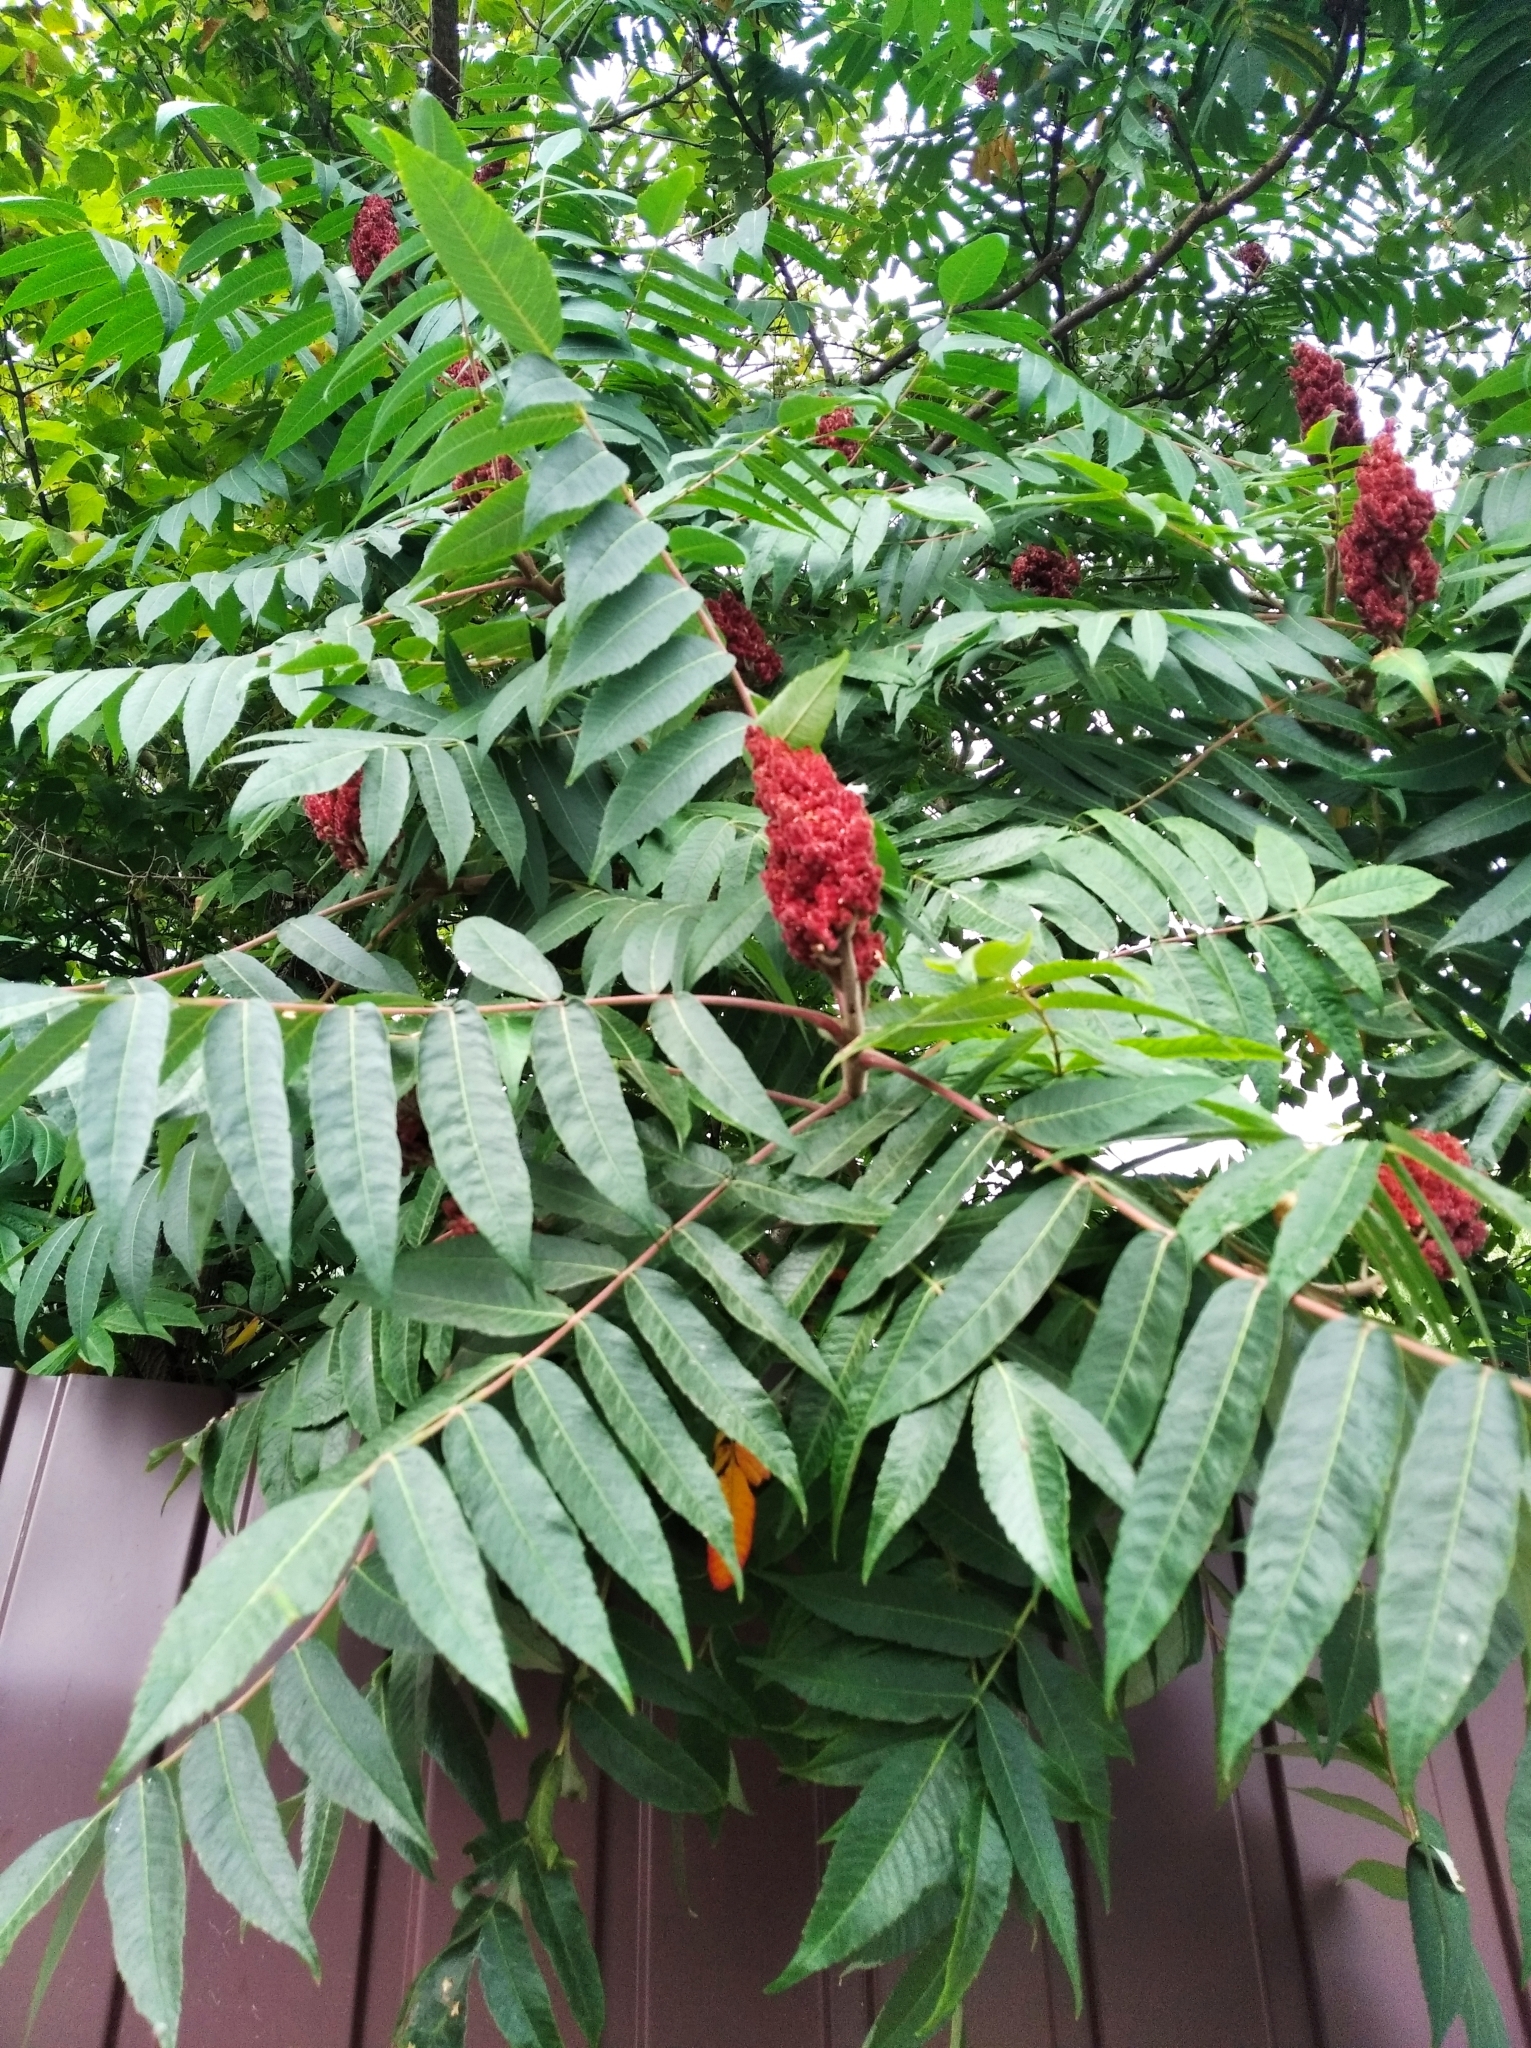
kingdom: Plantae
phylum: Tracheophyta
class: Magnoliopsida
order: Sapindales
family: Anacardiaceae
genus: Rhus
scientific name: Rhus typhina
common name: Staghorn sumac
